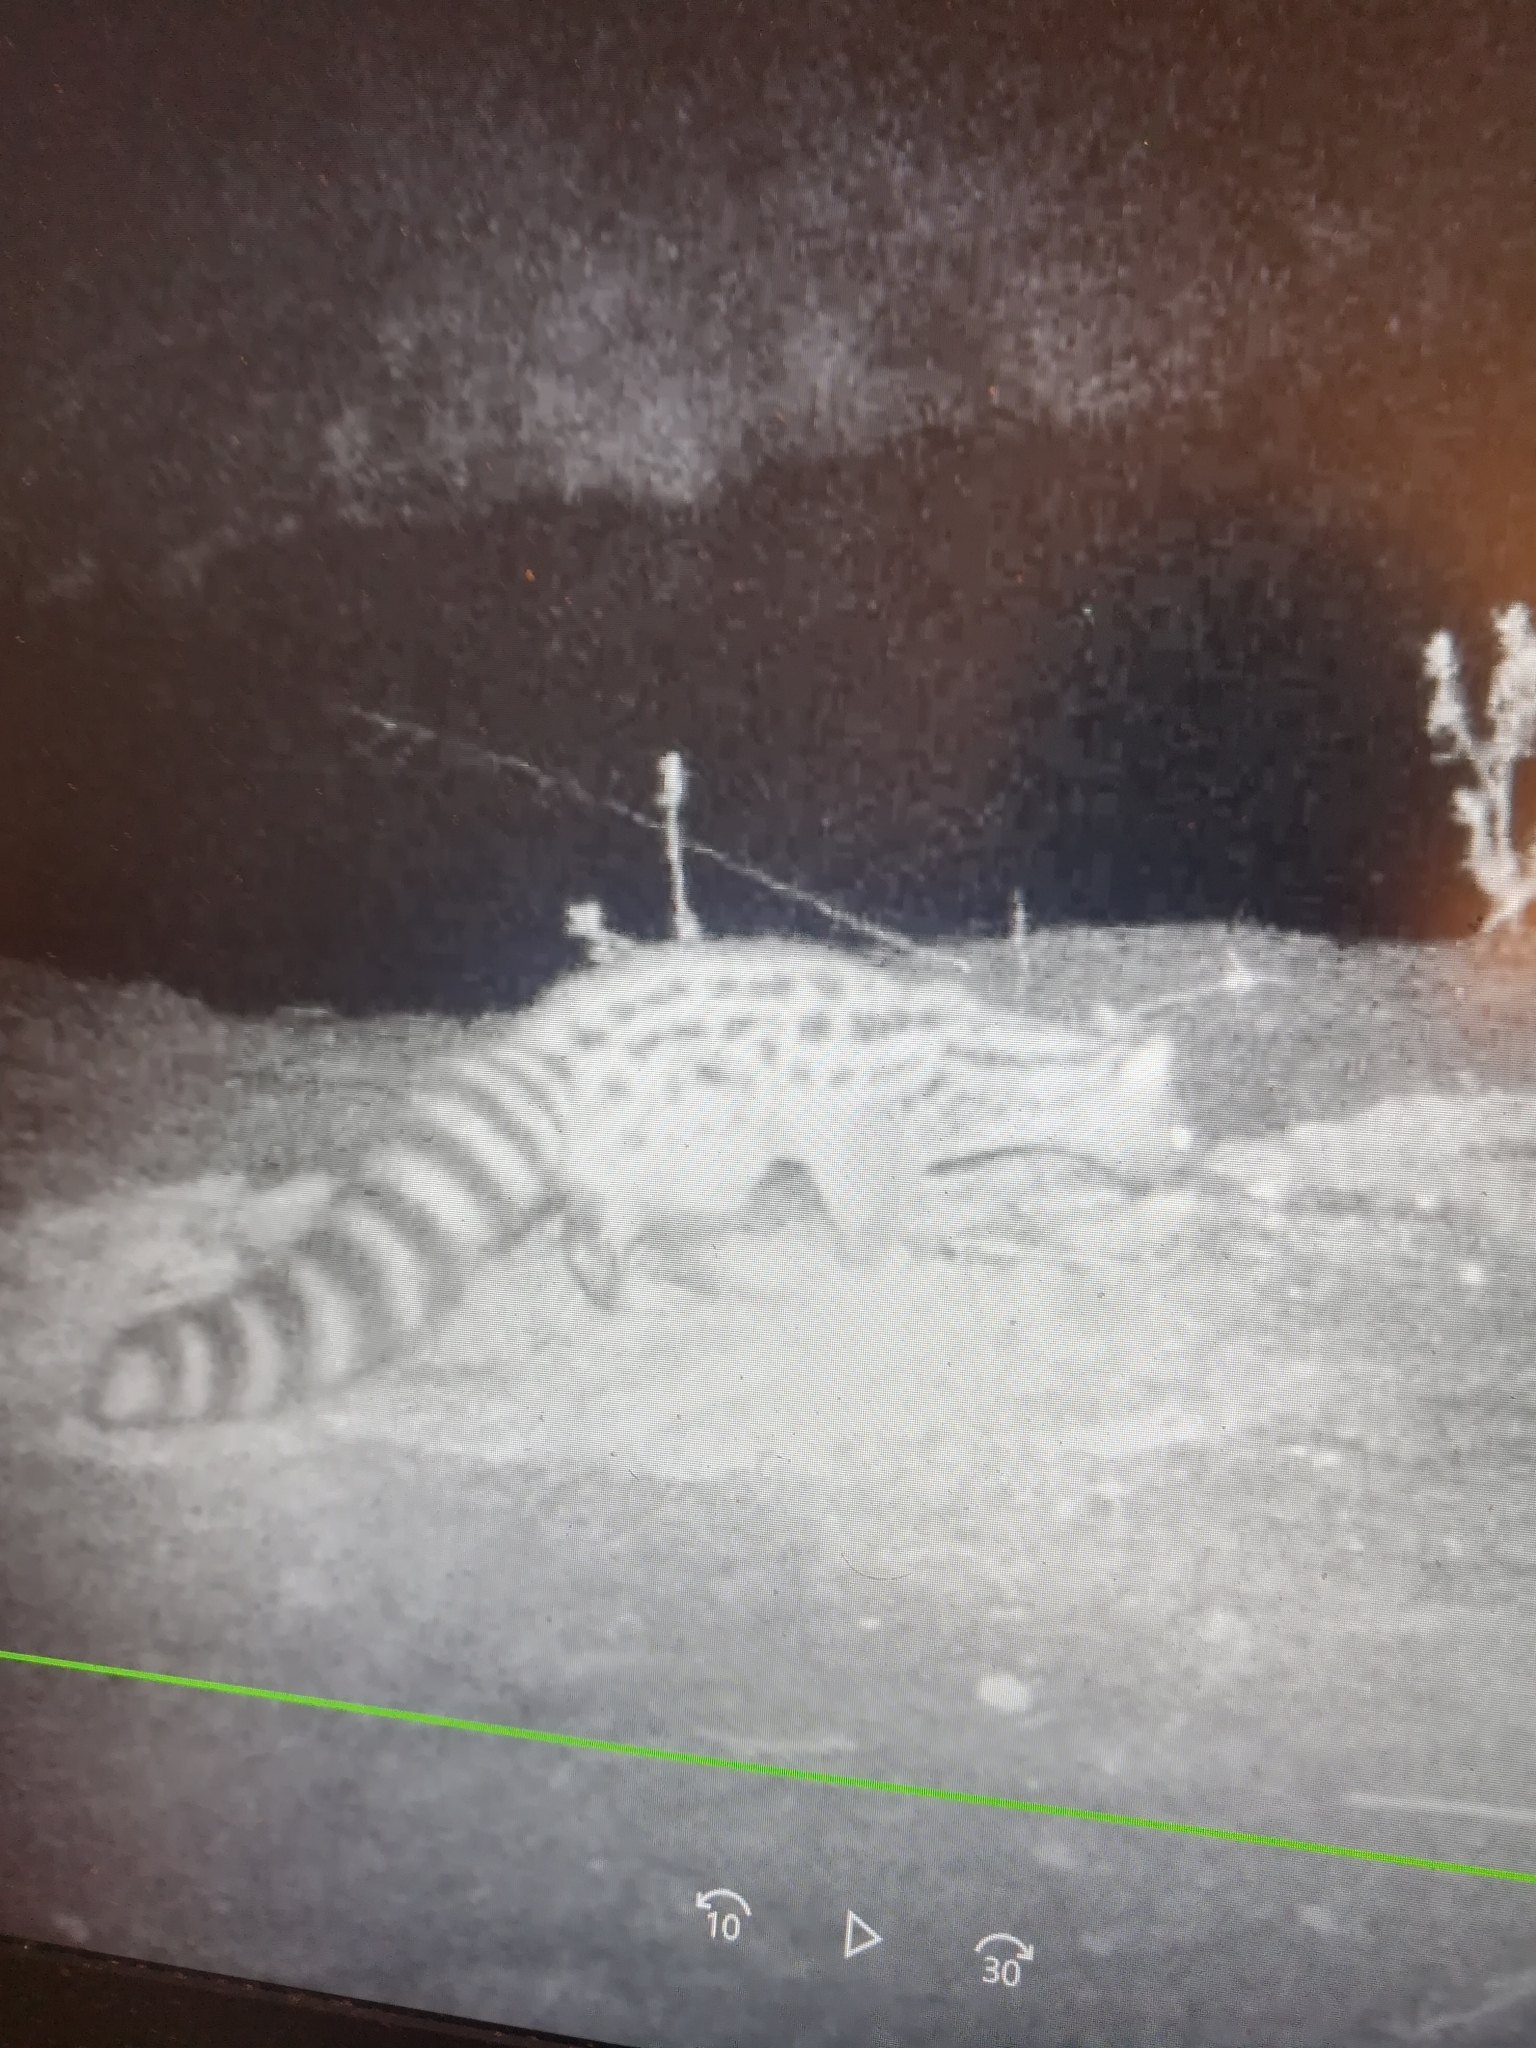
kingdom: Animalia
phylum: Chordata
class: Mammalia
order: Carnivora
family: Viverridae
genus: Genetta
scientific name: Genetta genetta
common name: Common genet
